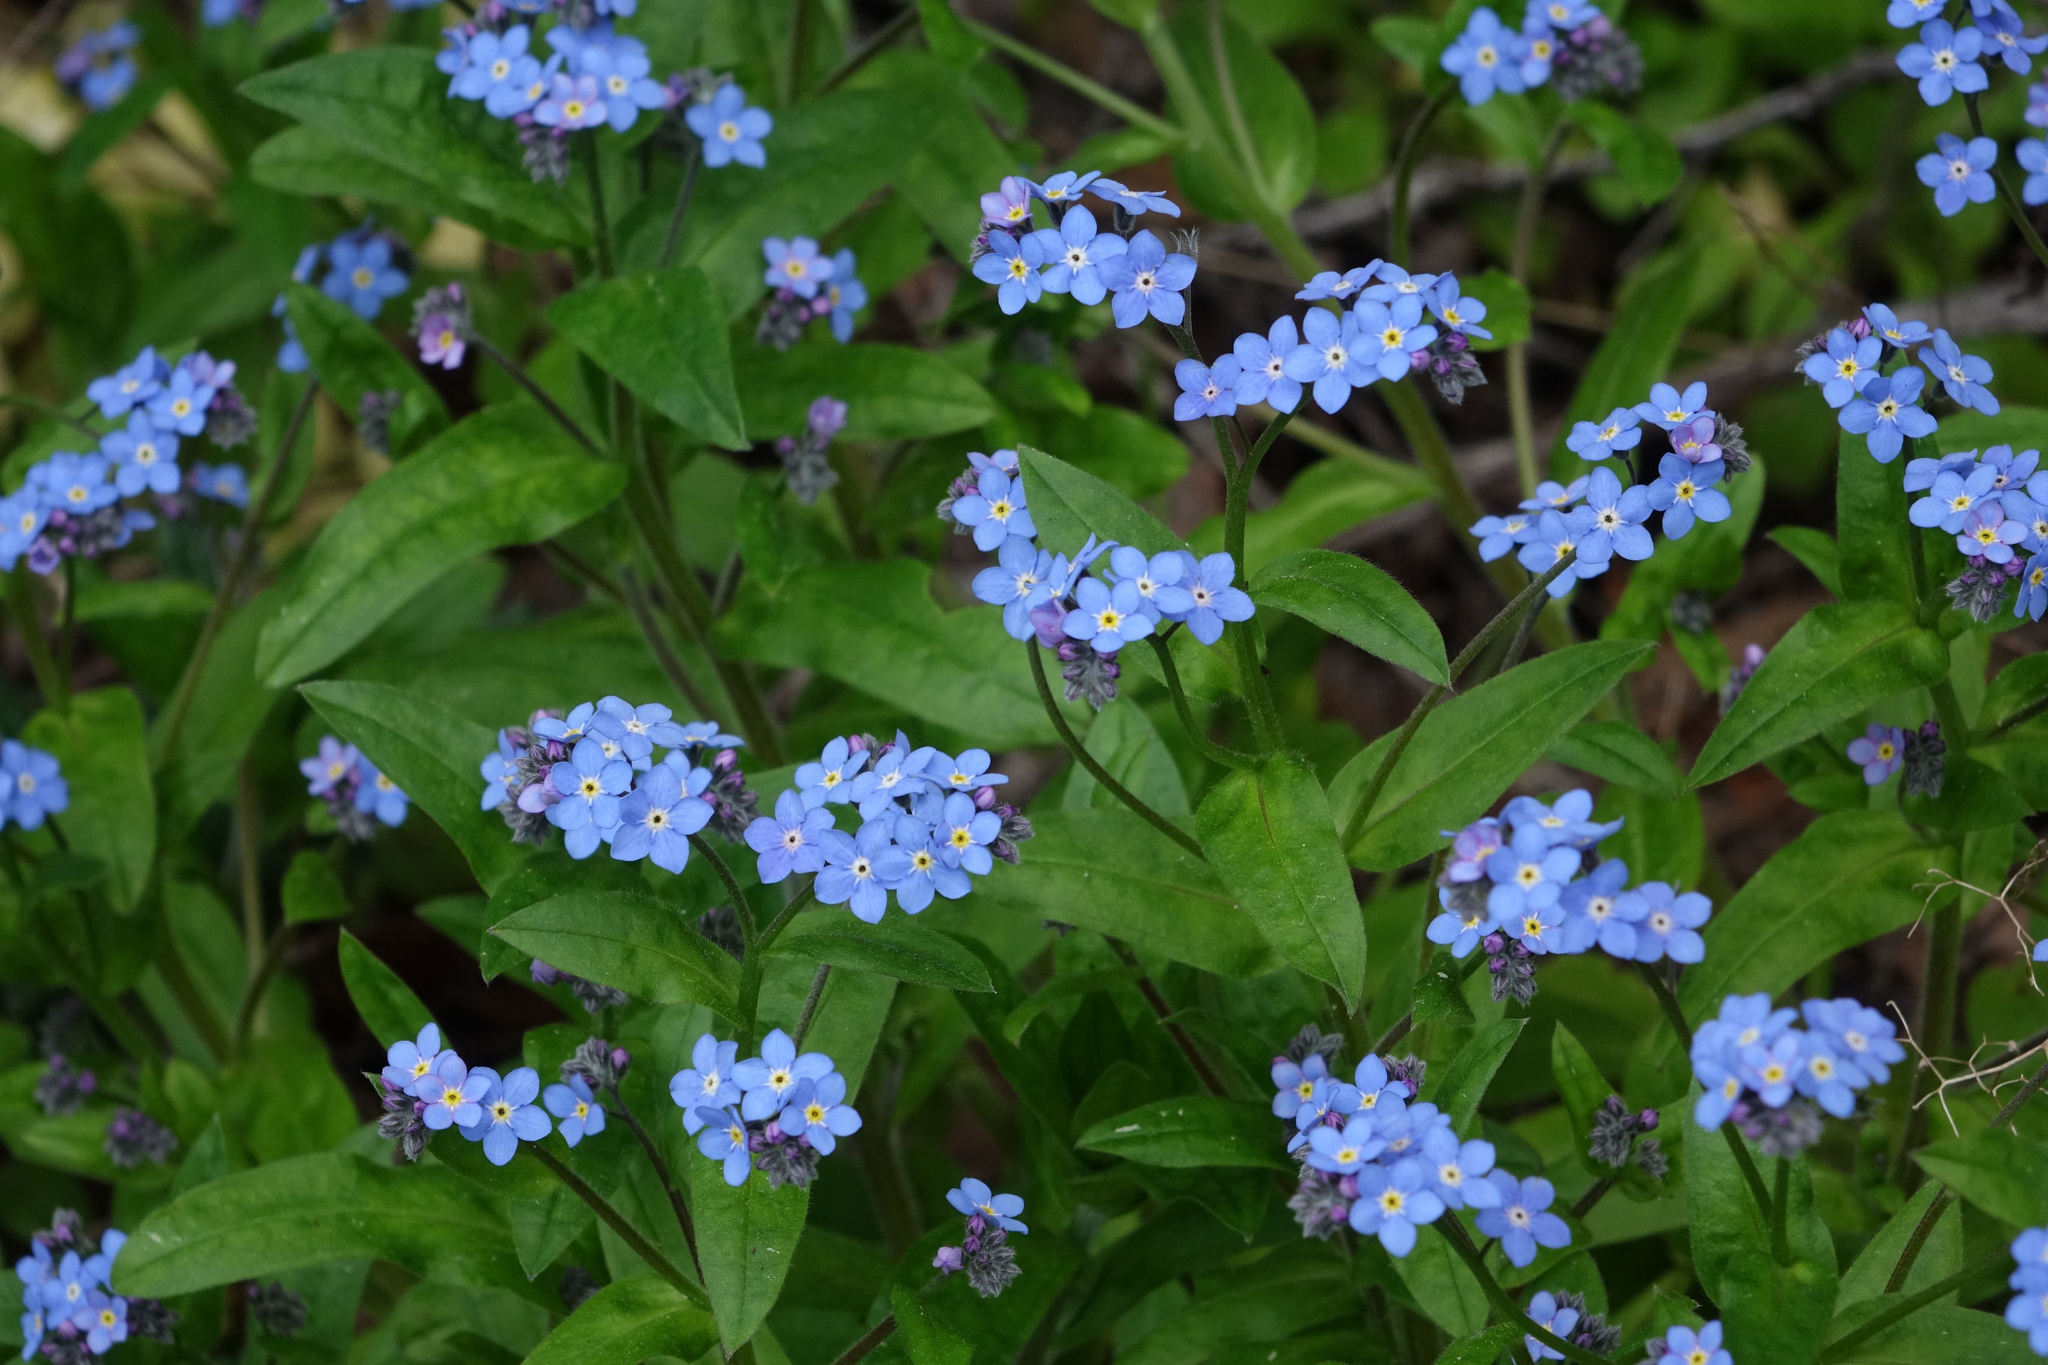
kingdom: Plantae
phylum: Tracheophyta
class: Magnoliopsida
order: Boraginales
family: Boraginaceae
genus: Myosotis
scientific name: Myosotis sylvatica
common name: Wood forget-me-not
